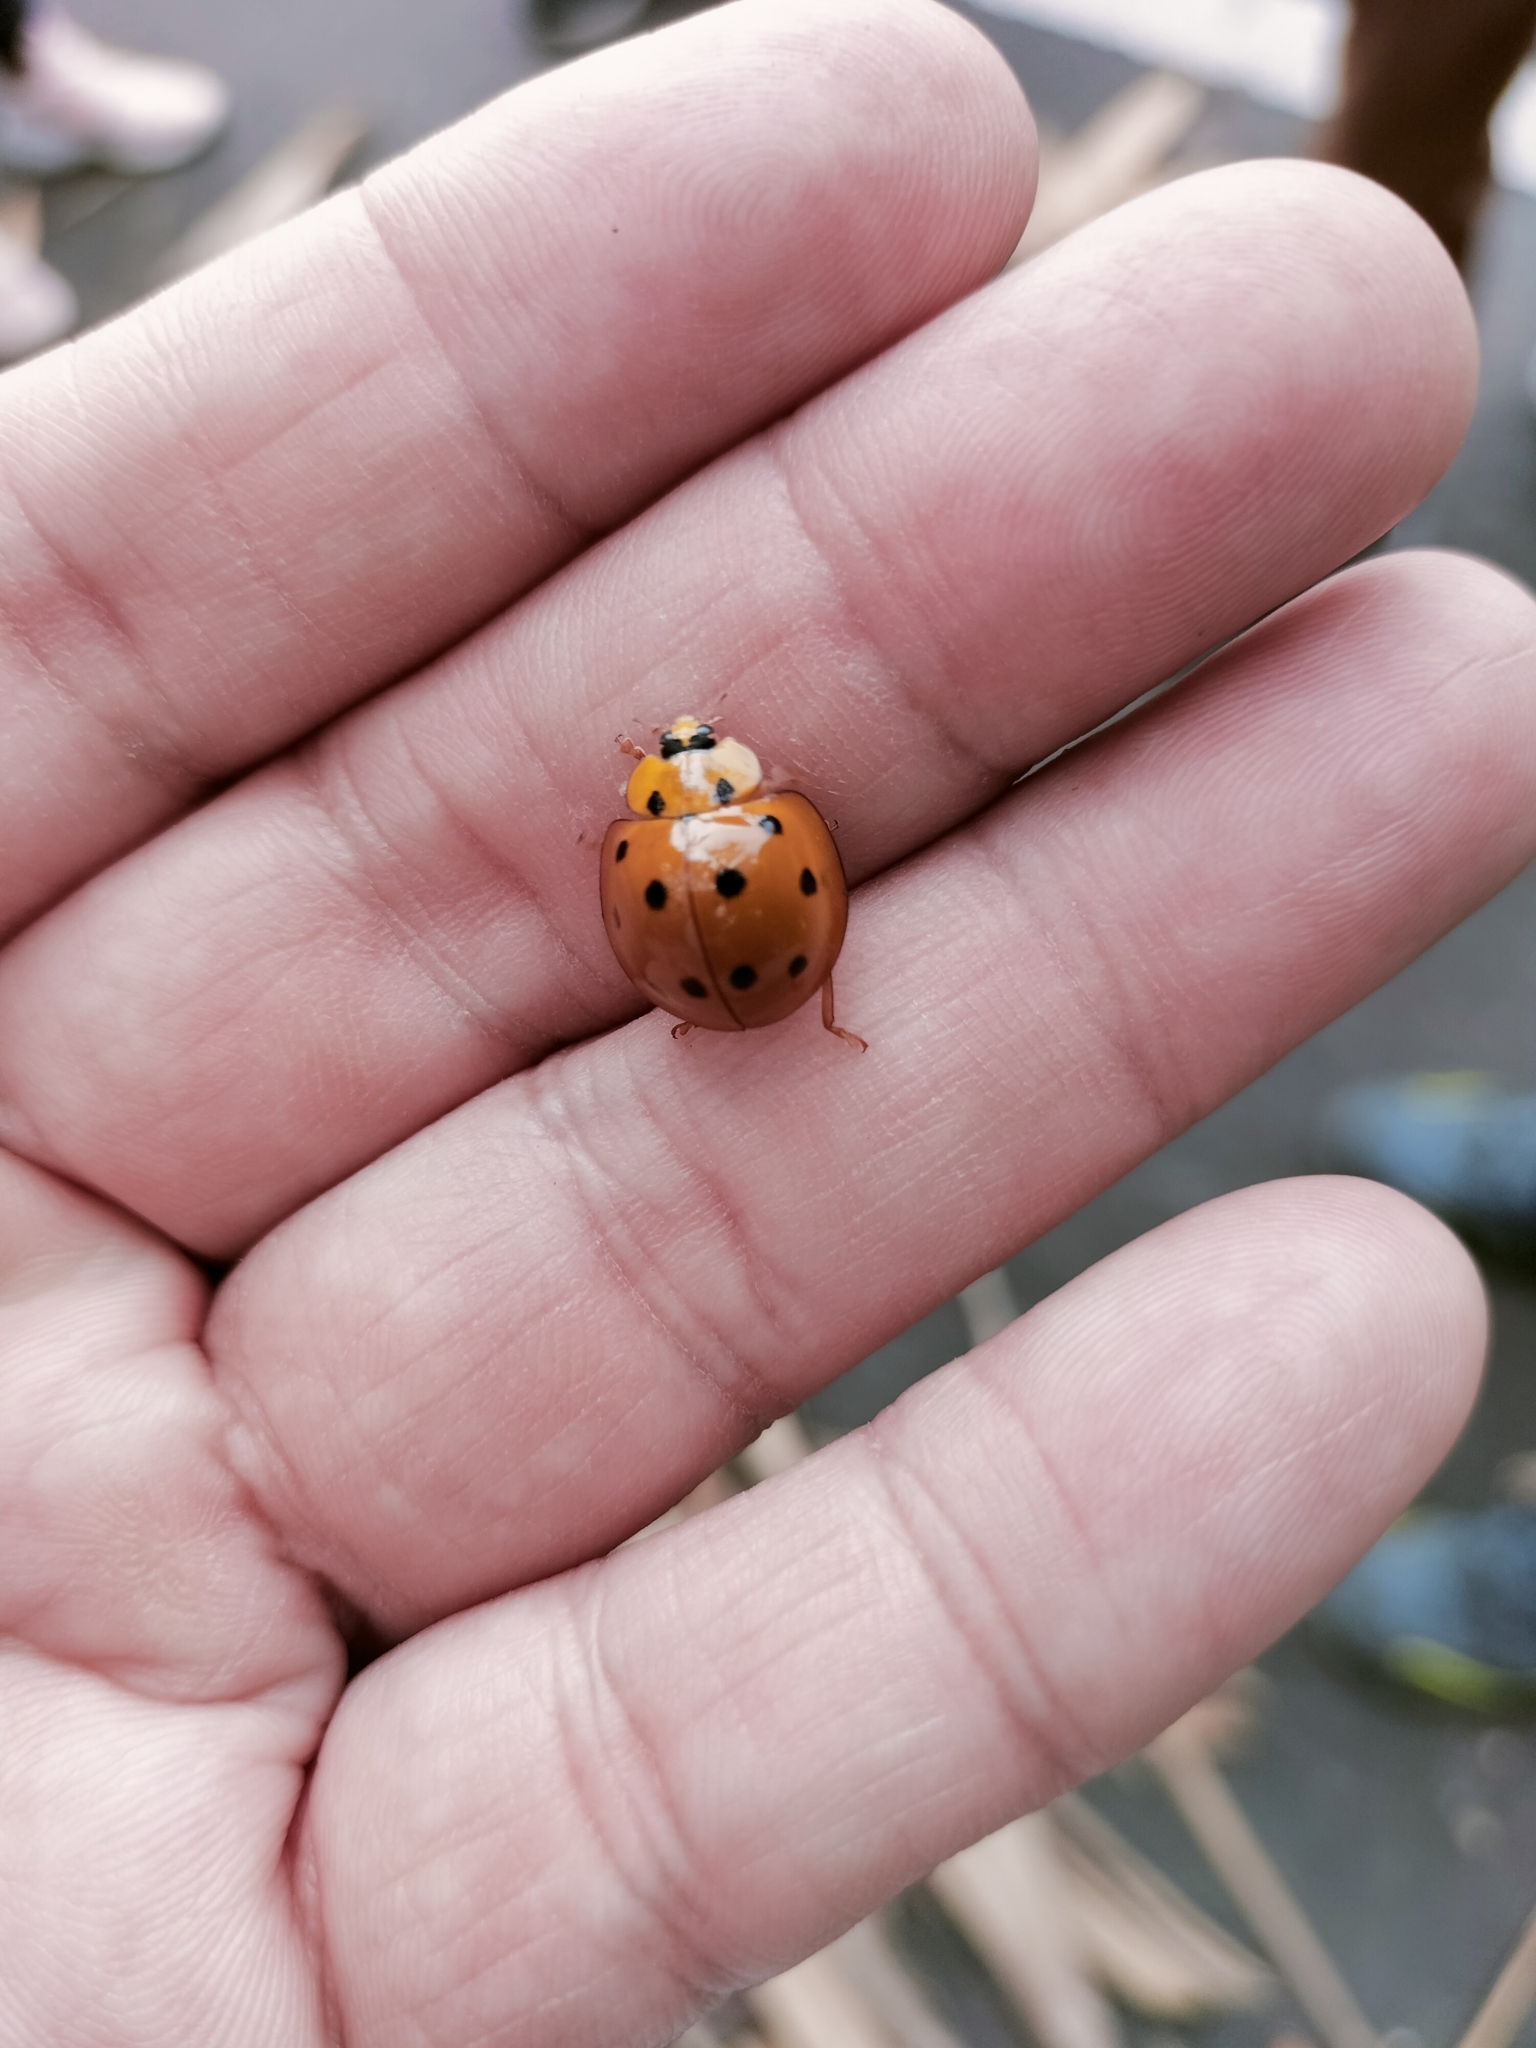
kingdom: Animalia
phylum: Arthropoda
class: Insecta
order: Coleoptera
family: Coccinellidae
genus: Megalocaria
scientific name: Megalocaria dilatata
